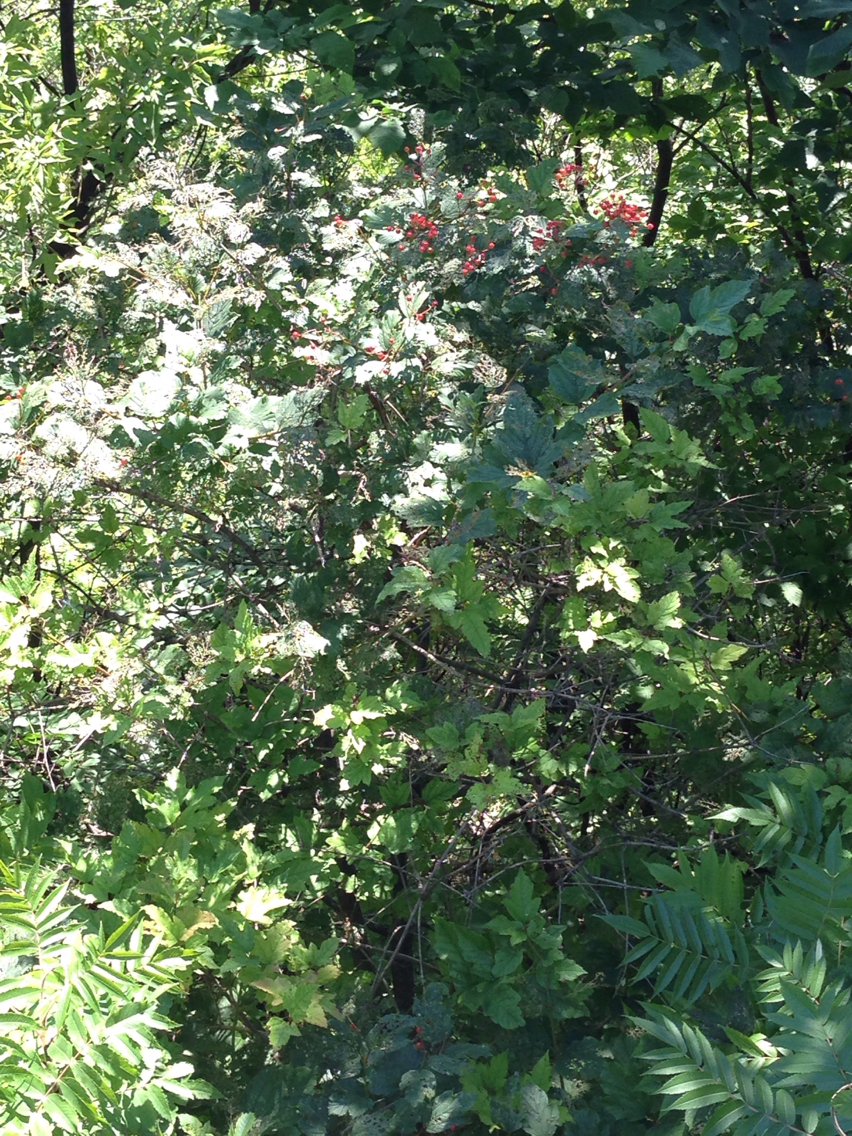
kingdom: Plantae
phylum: Tracheophyta
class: Magnoliopsida
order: Dipsacales
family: Viburnaceae
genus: Viburnum
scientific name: Viburnum opulus
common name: Guelder-rose
